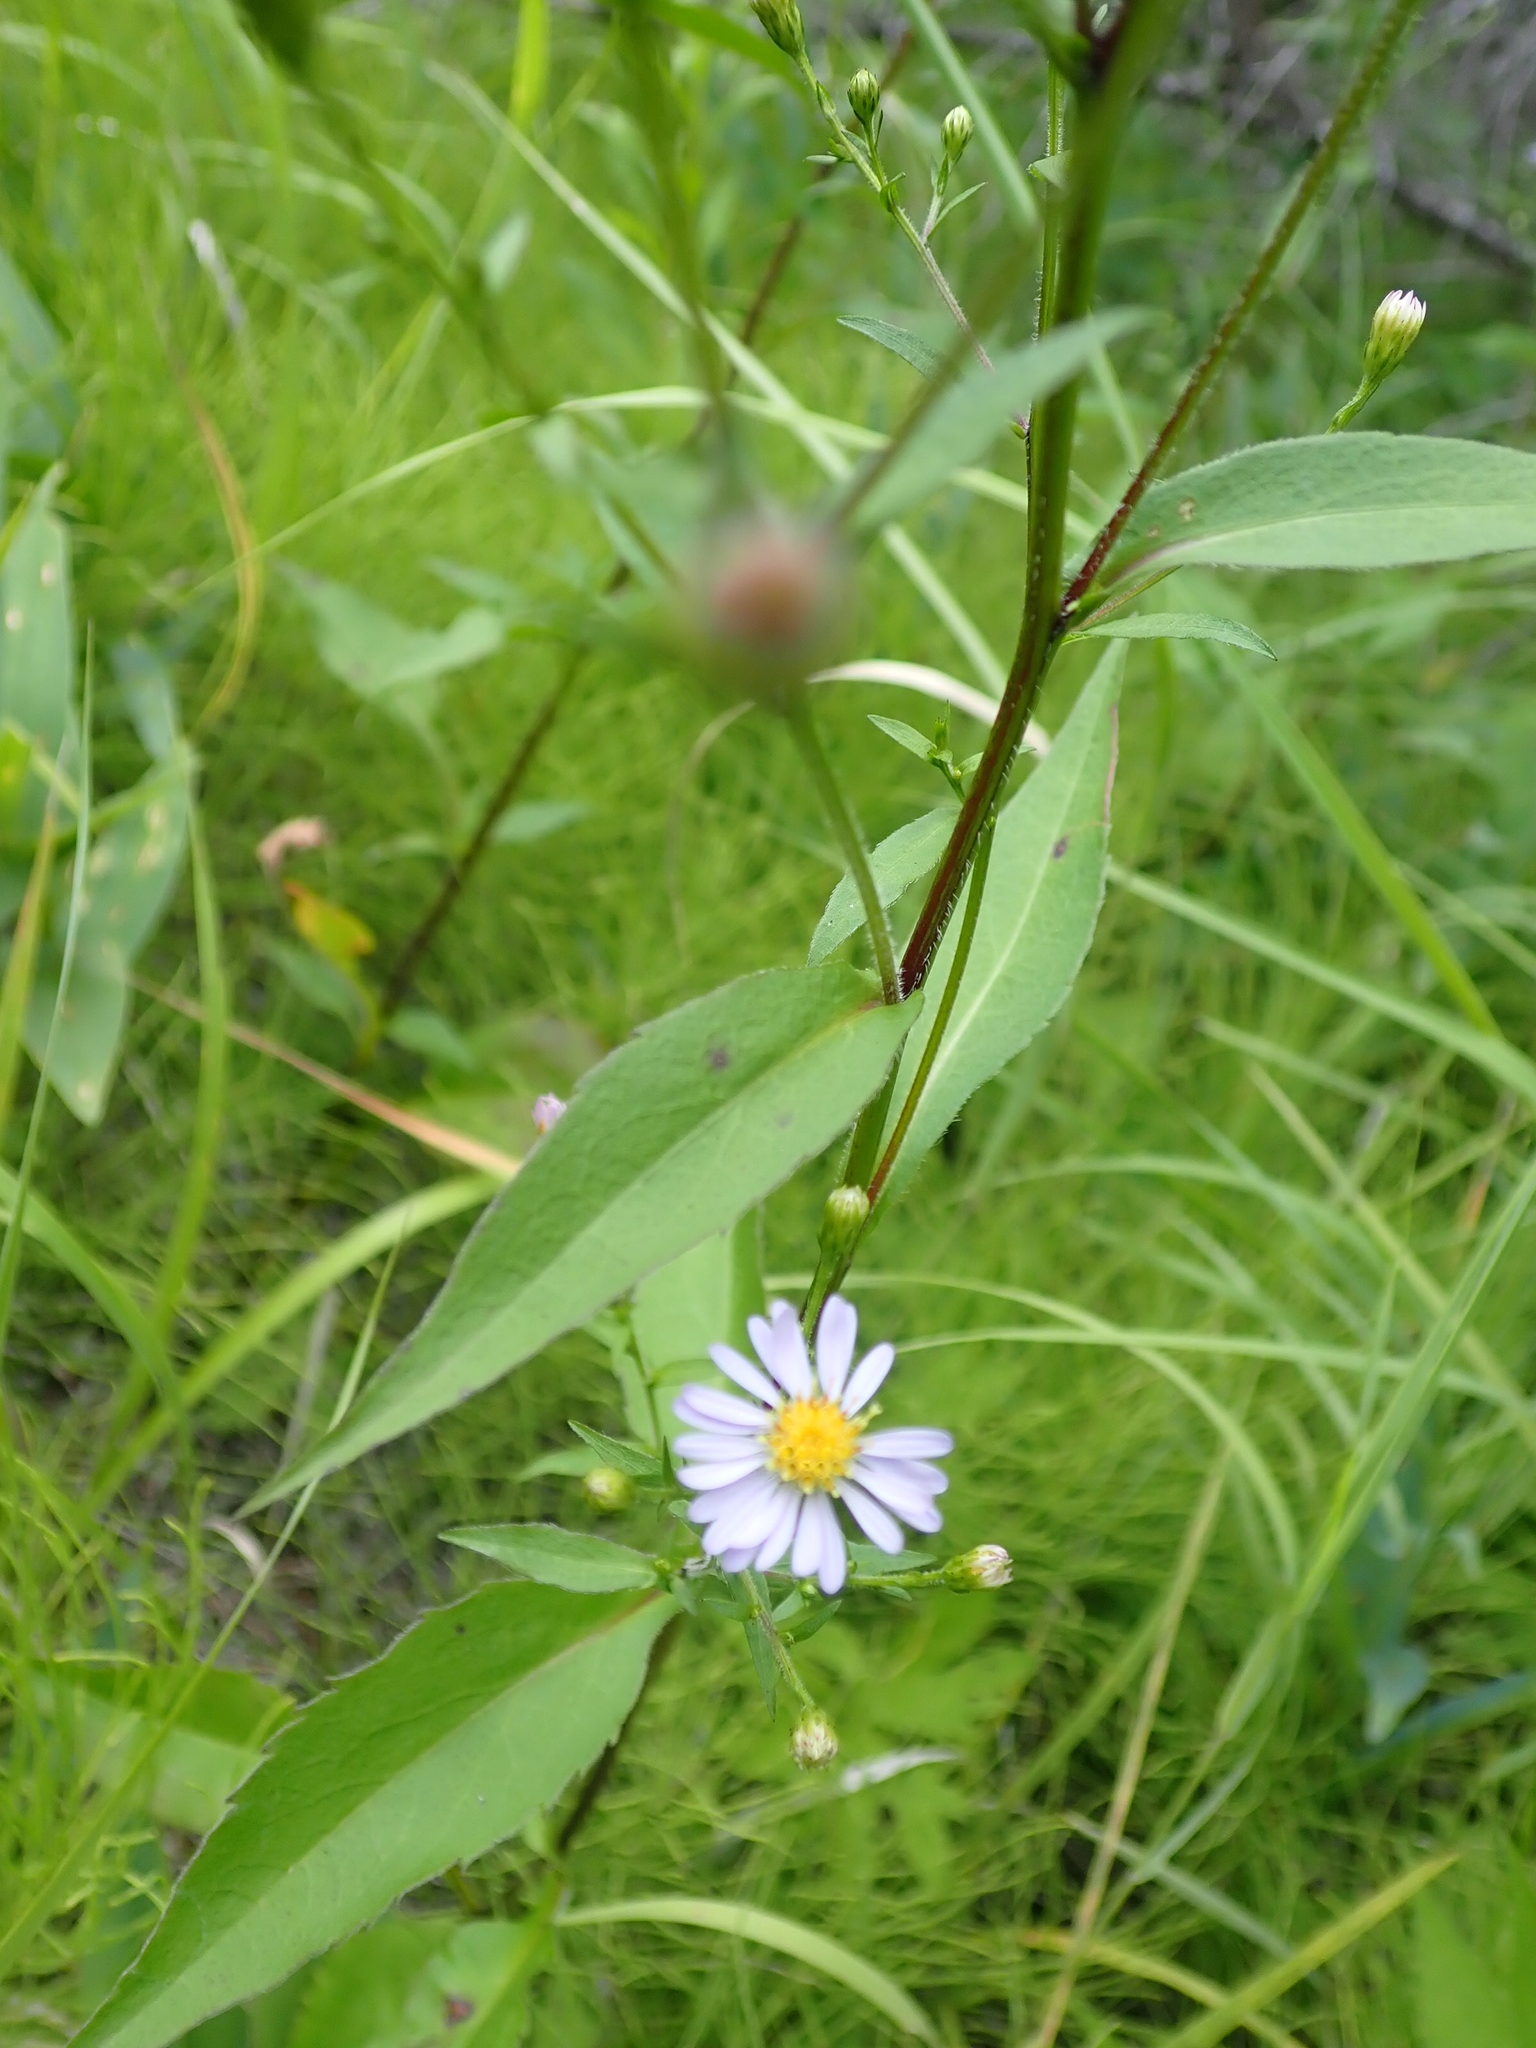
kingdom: Plantae
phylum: Tracheophyta
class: Magnoliopsida
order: Asterales
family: Asteraceae
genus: Symphyotrichum
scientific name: Symphyotrichum lanceolatum
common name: Panicled aster
